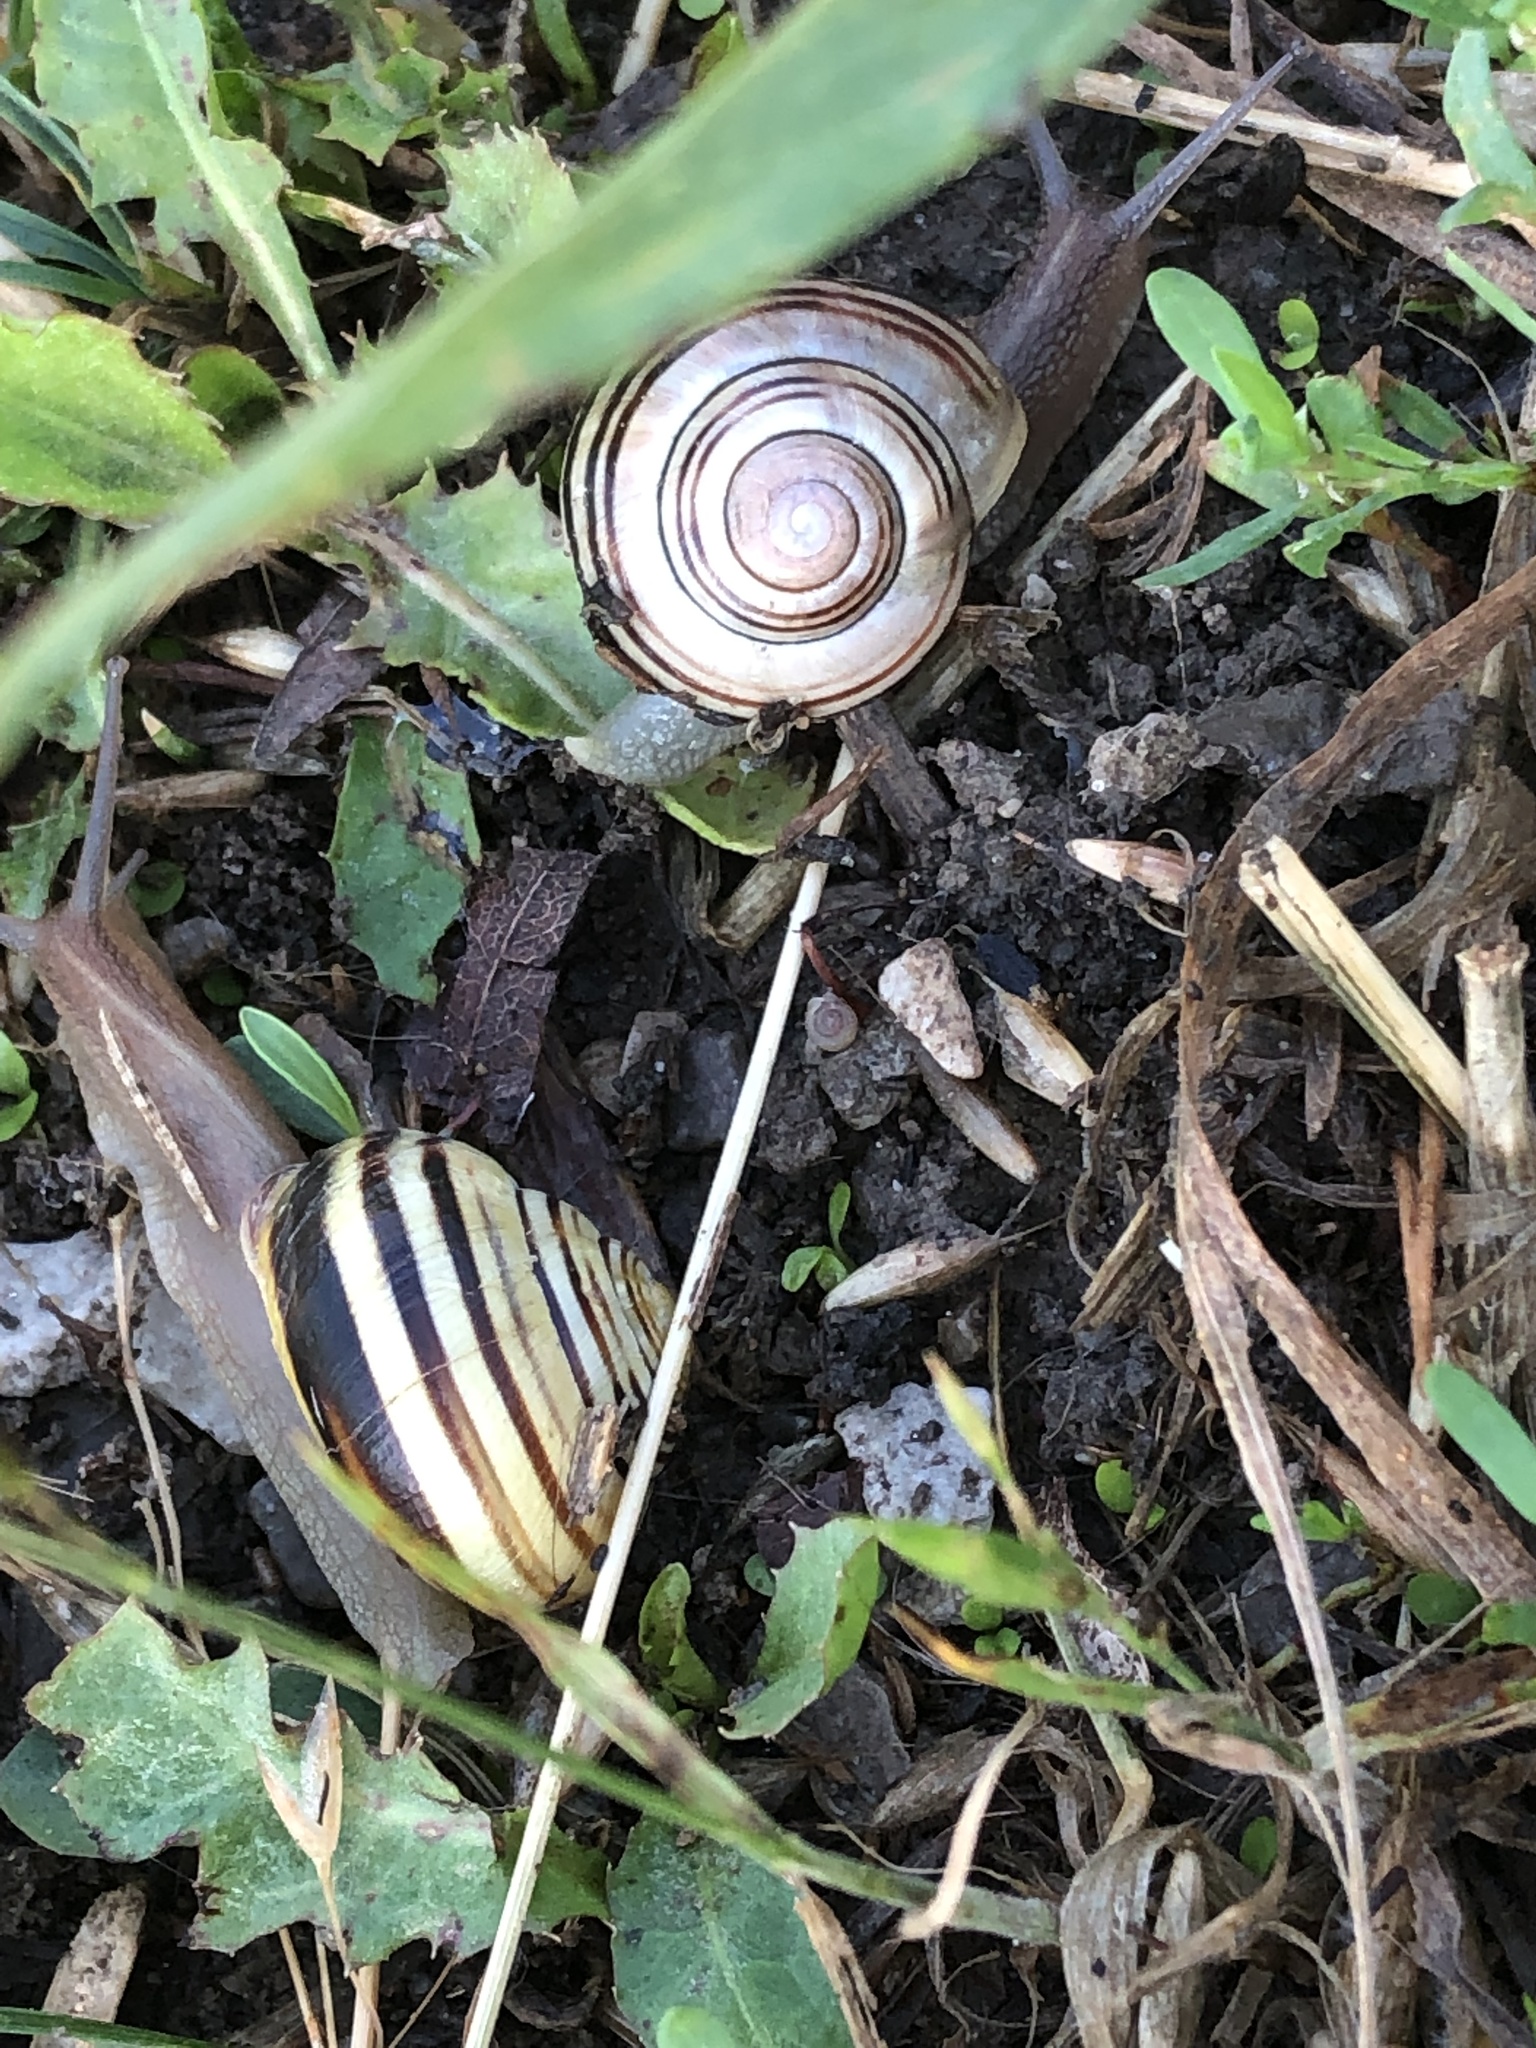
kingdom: Animalia
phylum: Mollusca
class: Gastropoda
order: Stylommatophora
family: Helicidae
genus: Cepaea
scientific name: Cepaea nemoralis
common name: Grovesnail
